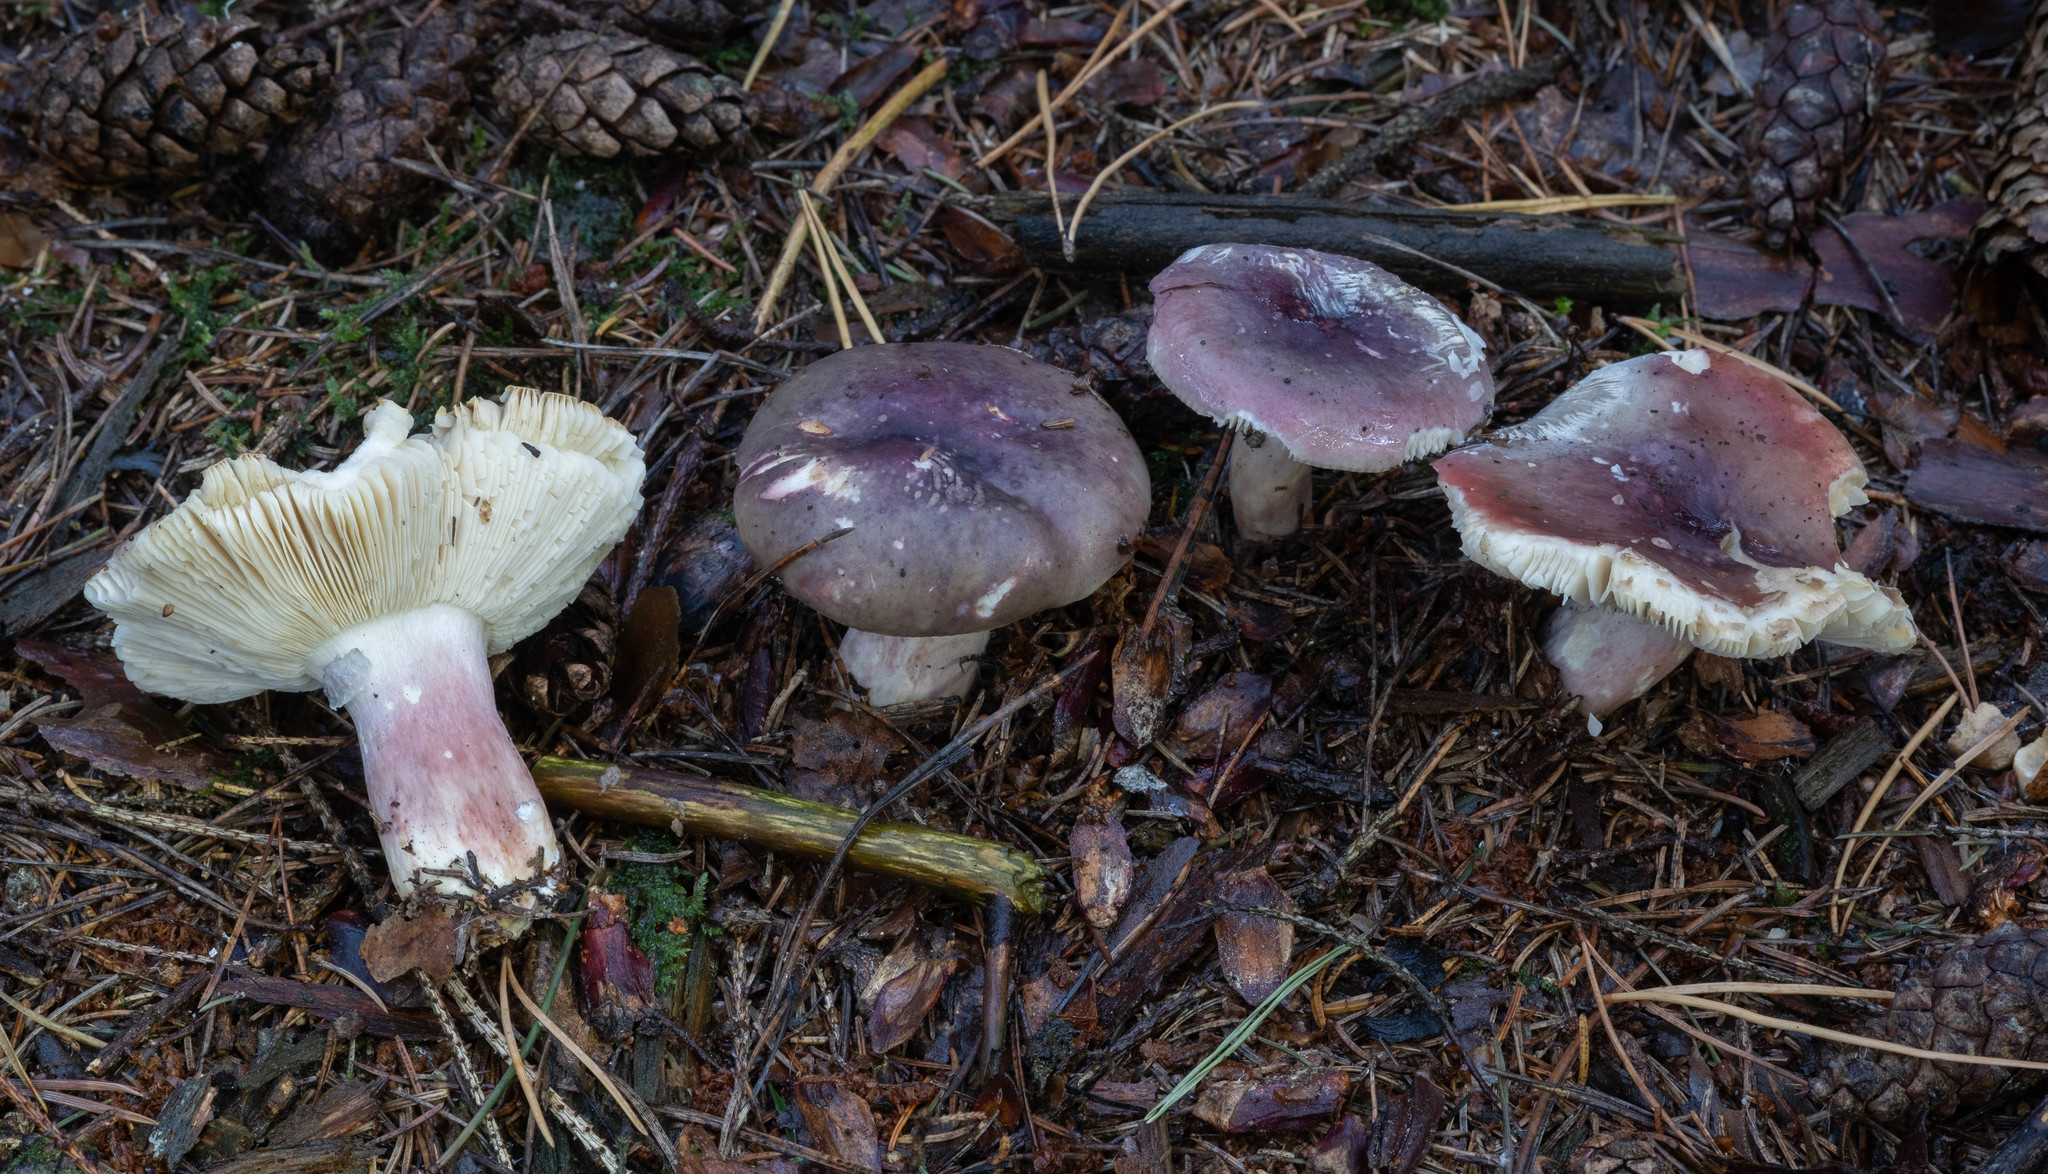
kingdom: Fungi
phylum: Basidiomycota
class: Agaricomycetes
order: Russulales
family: Russulaceae
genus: Russula
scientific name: Russula sardonia
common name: Primrose brittlegill
